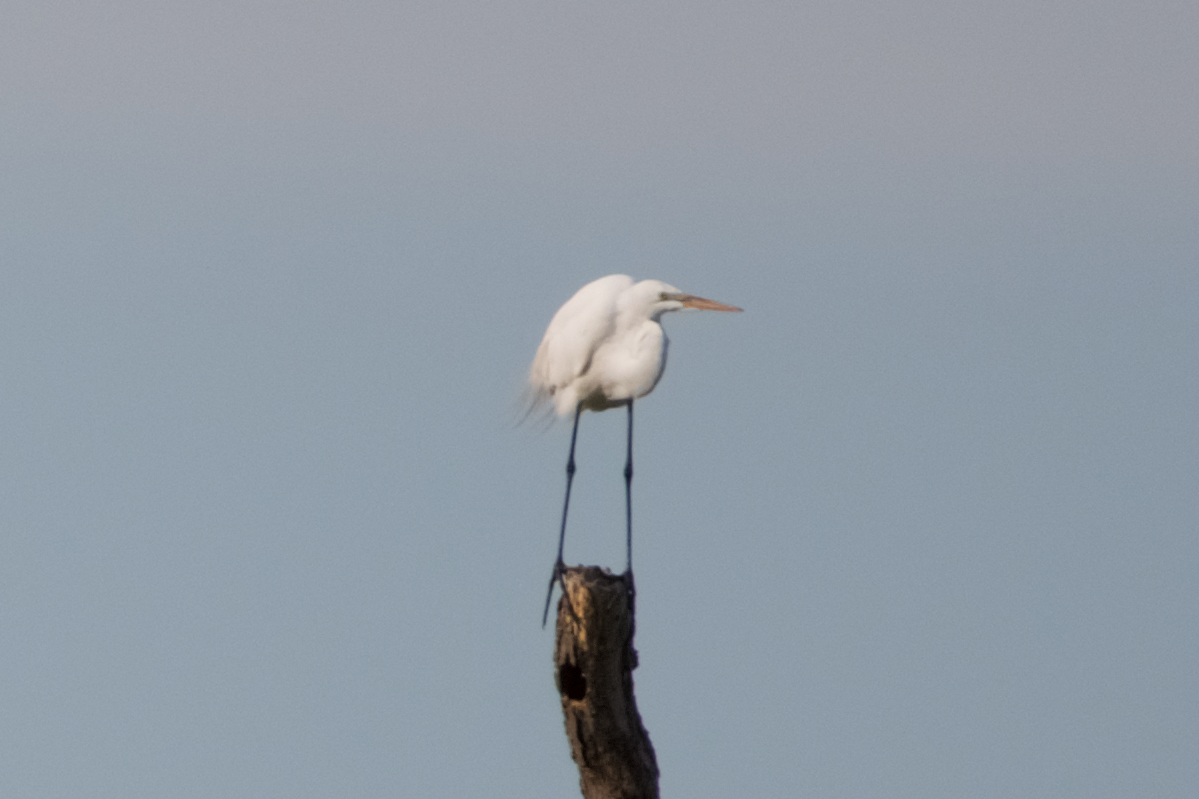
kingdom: Animalia
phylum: Chordata
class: Aves
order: Pelecaniformes
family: Ardeidae
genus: Ardea
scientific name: Ardea alba
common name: Great egret
